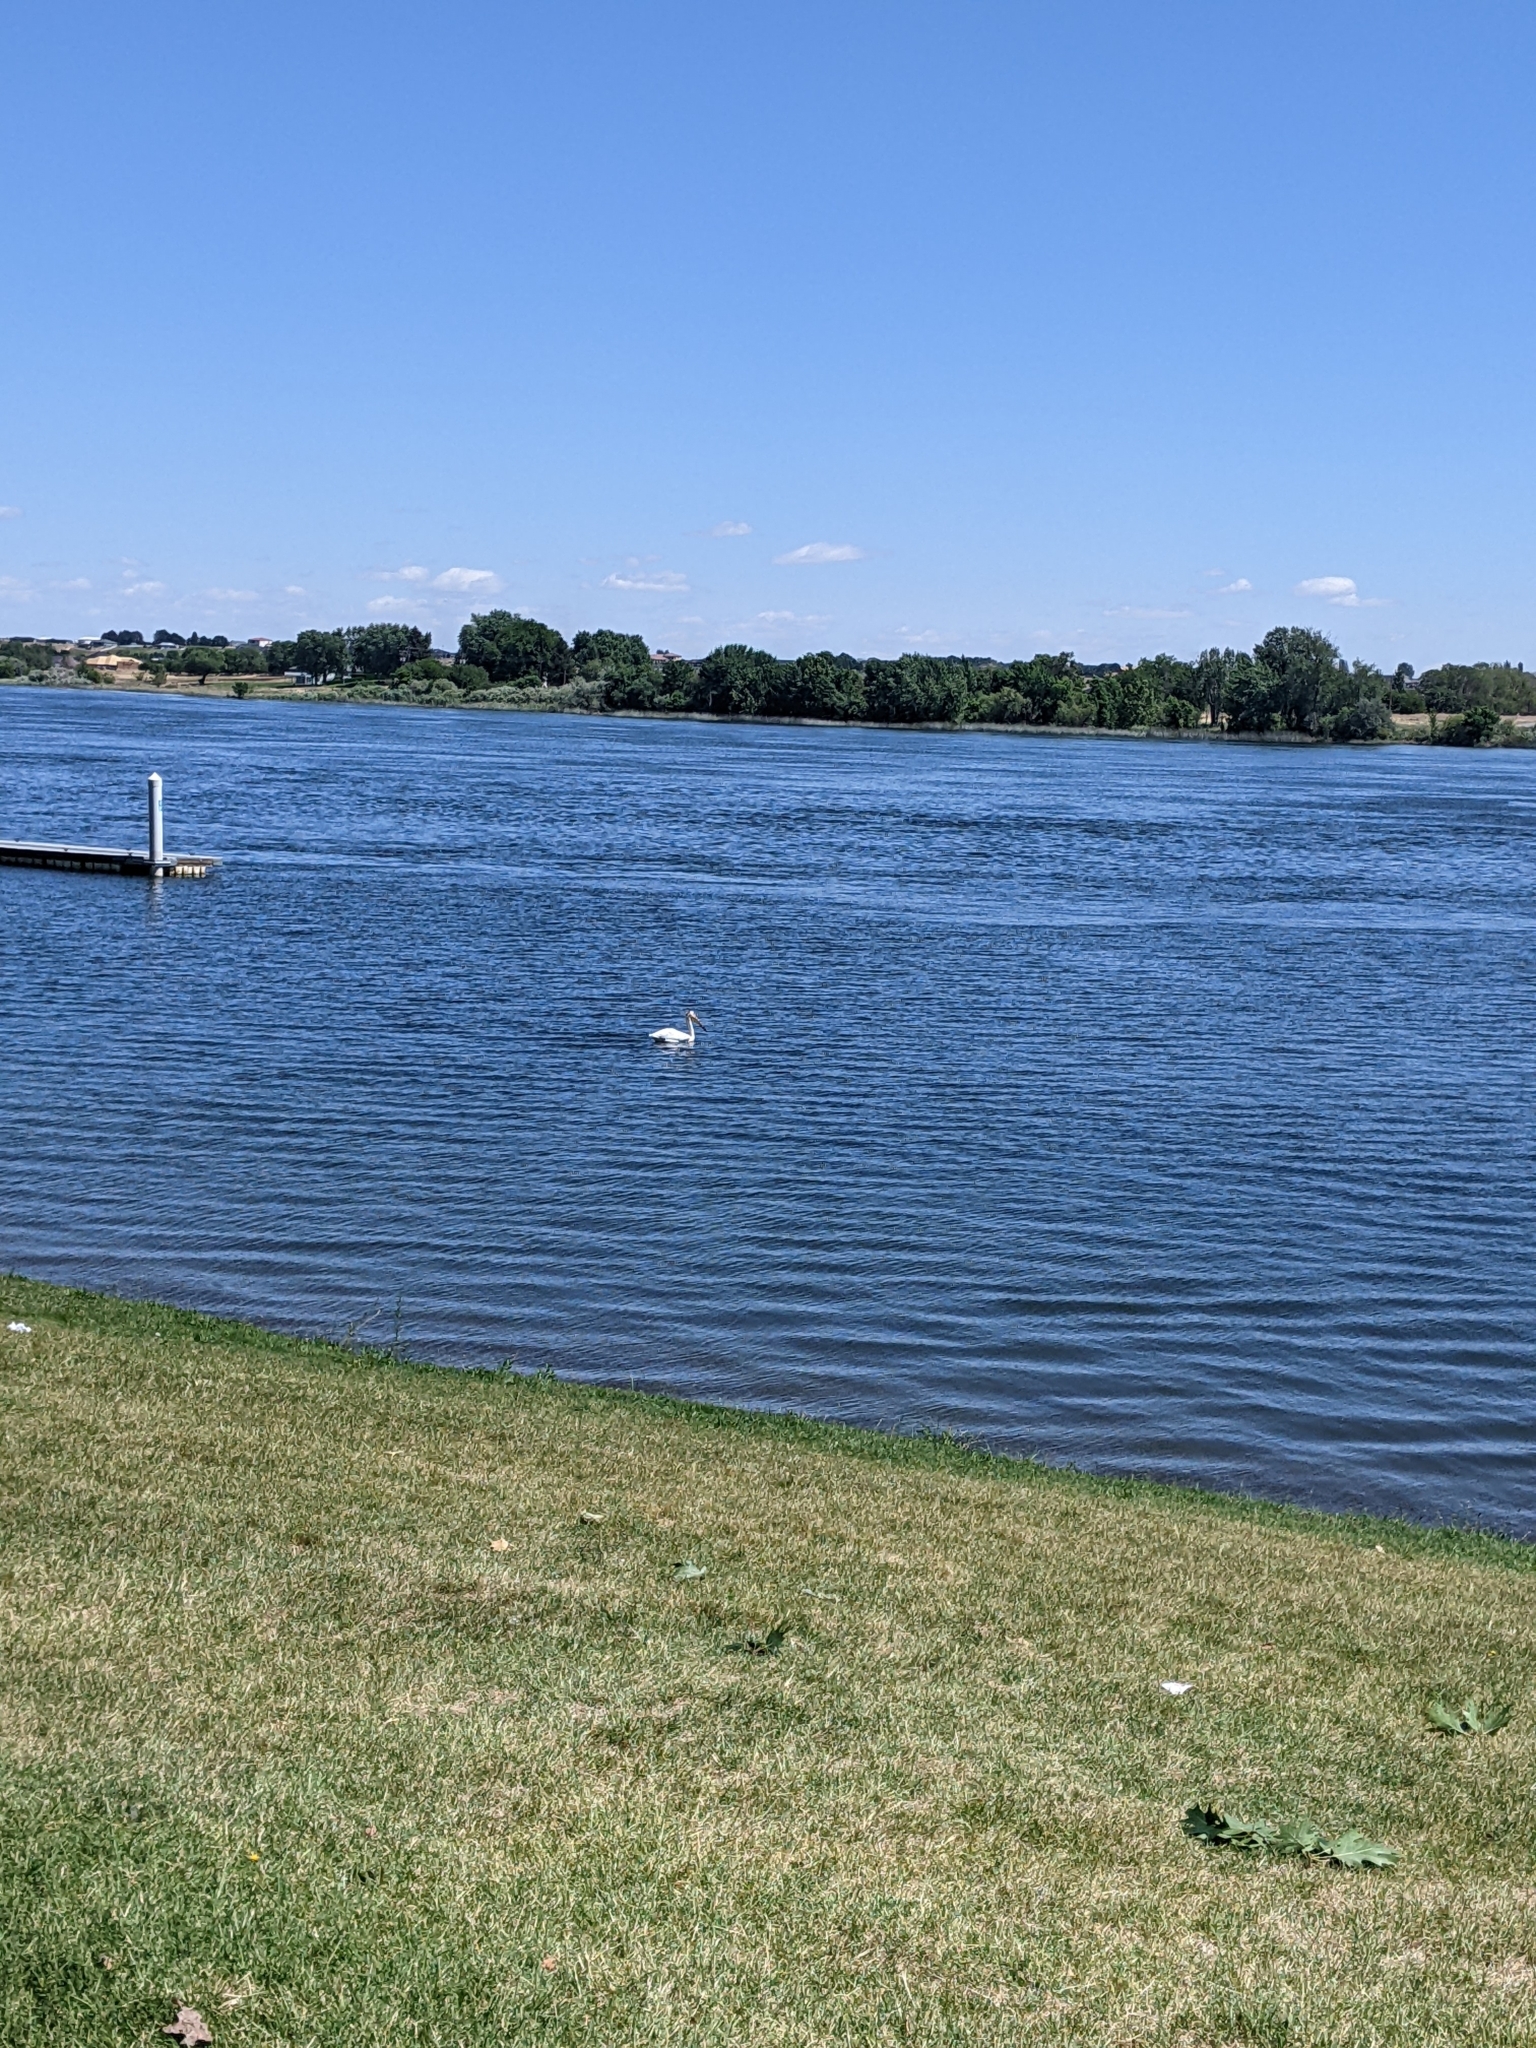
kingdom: Animalia
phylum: Chordata
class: Aves
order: Pelecaniformes
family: Pelecanidae
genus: Pelecanus
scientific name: Pelecanus erythrorhynchos
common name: American white pelican
